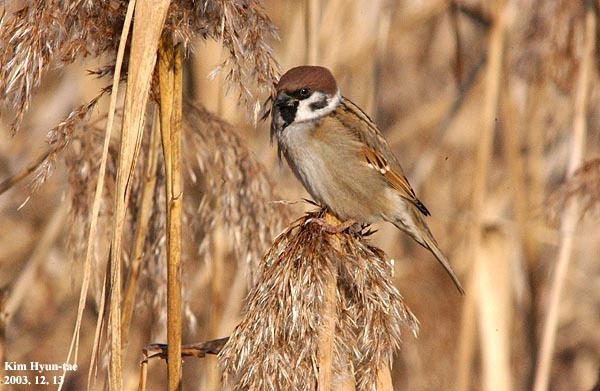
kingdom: Animalia
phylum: Chordata
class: Aves
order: Passeriformes
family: Passeridae
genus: Passer
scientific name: Passer montanus
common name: Eurasian tree sparrow
